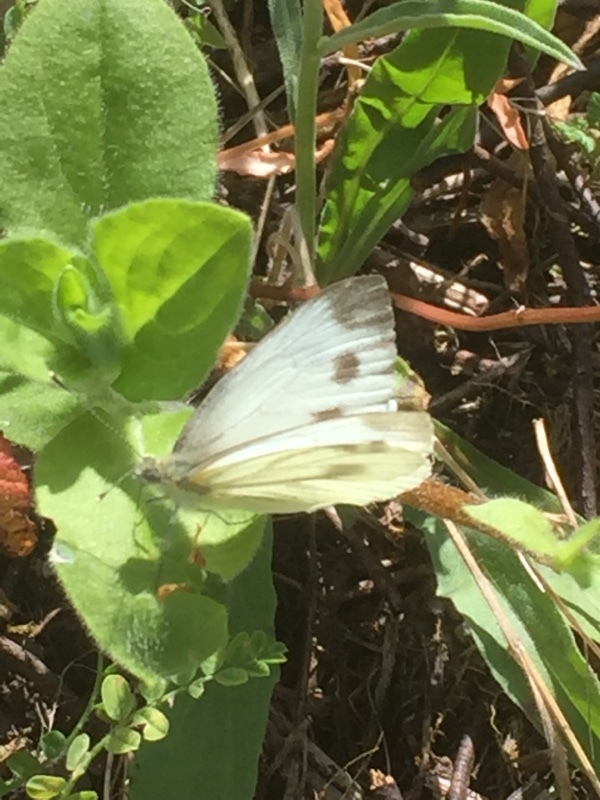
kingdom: Animalia
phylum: Arthropoda
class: Insecta
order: Lepidoptera
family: Pieridae
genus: Pieris
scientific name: Pieris napi
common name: Green-veined white
